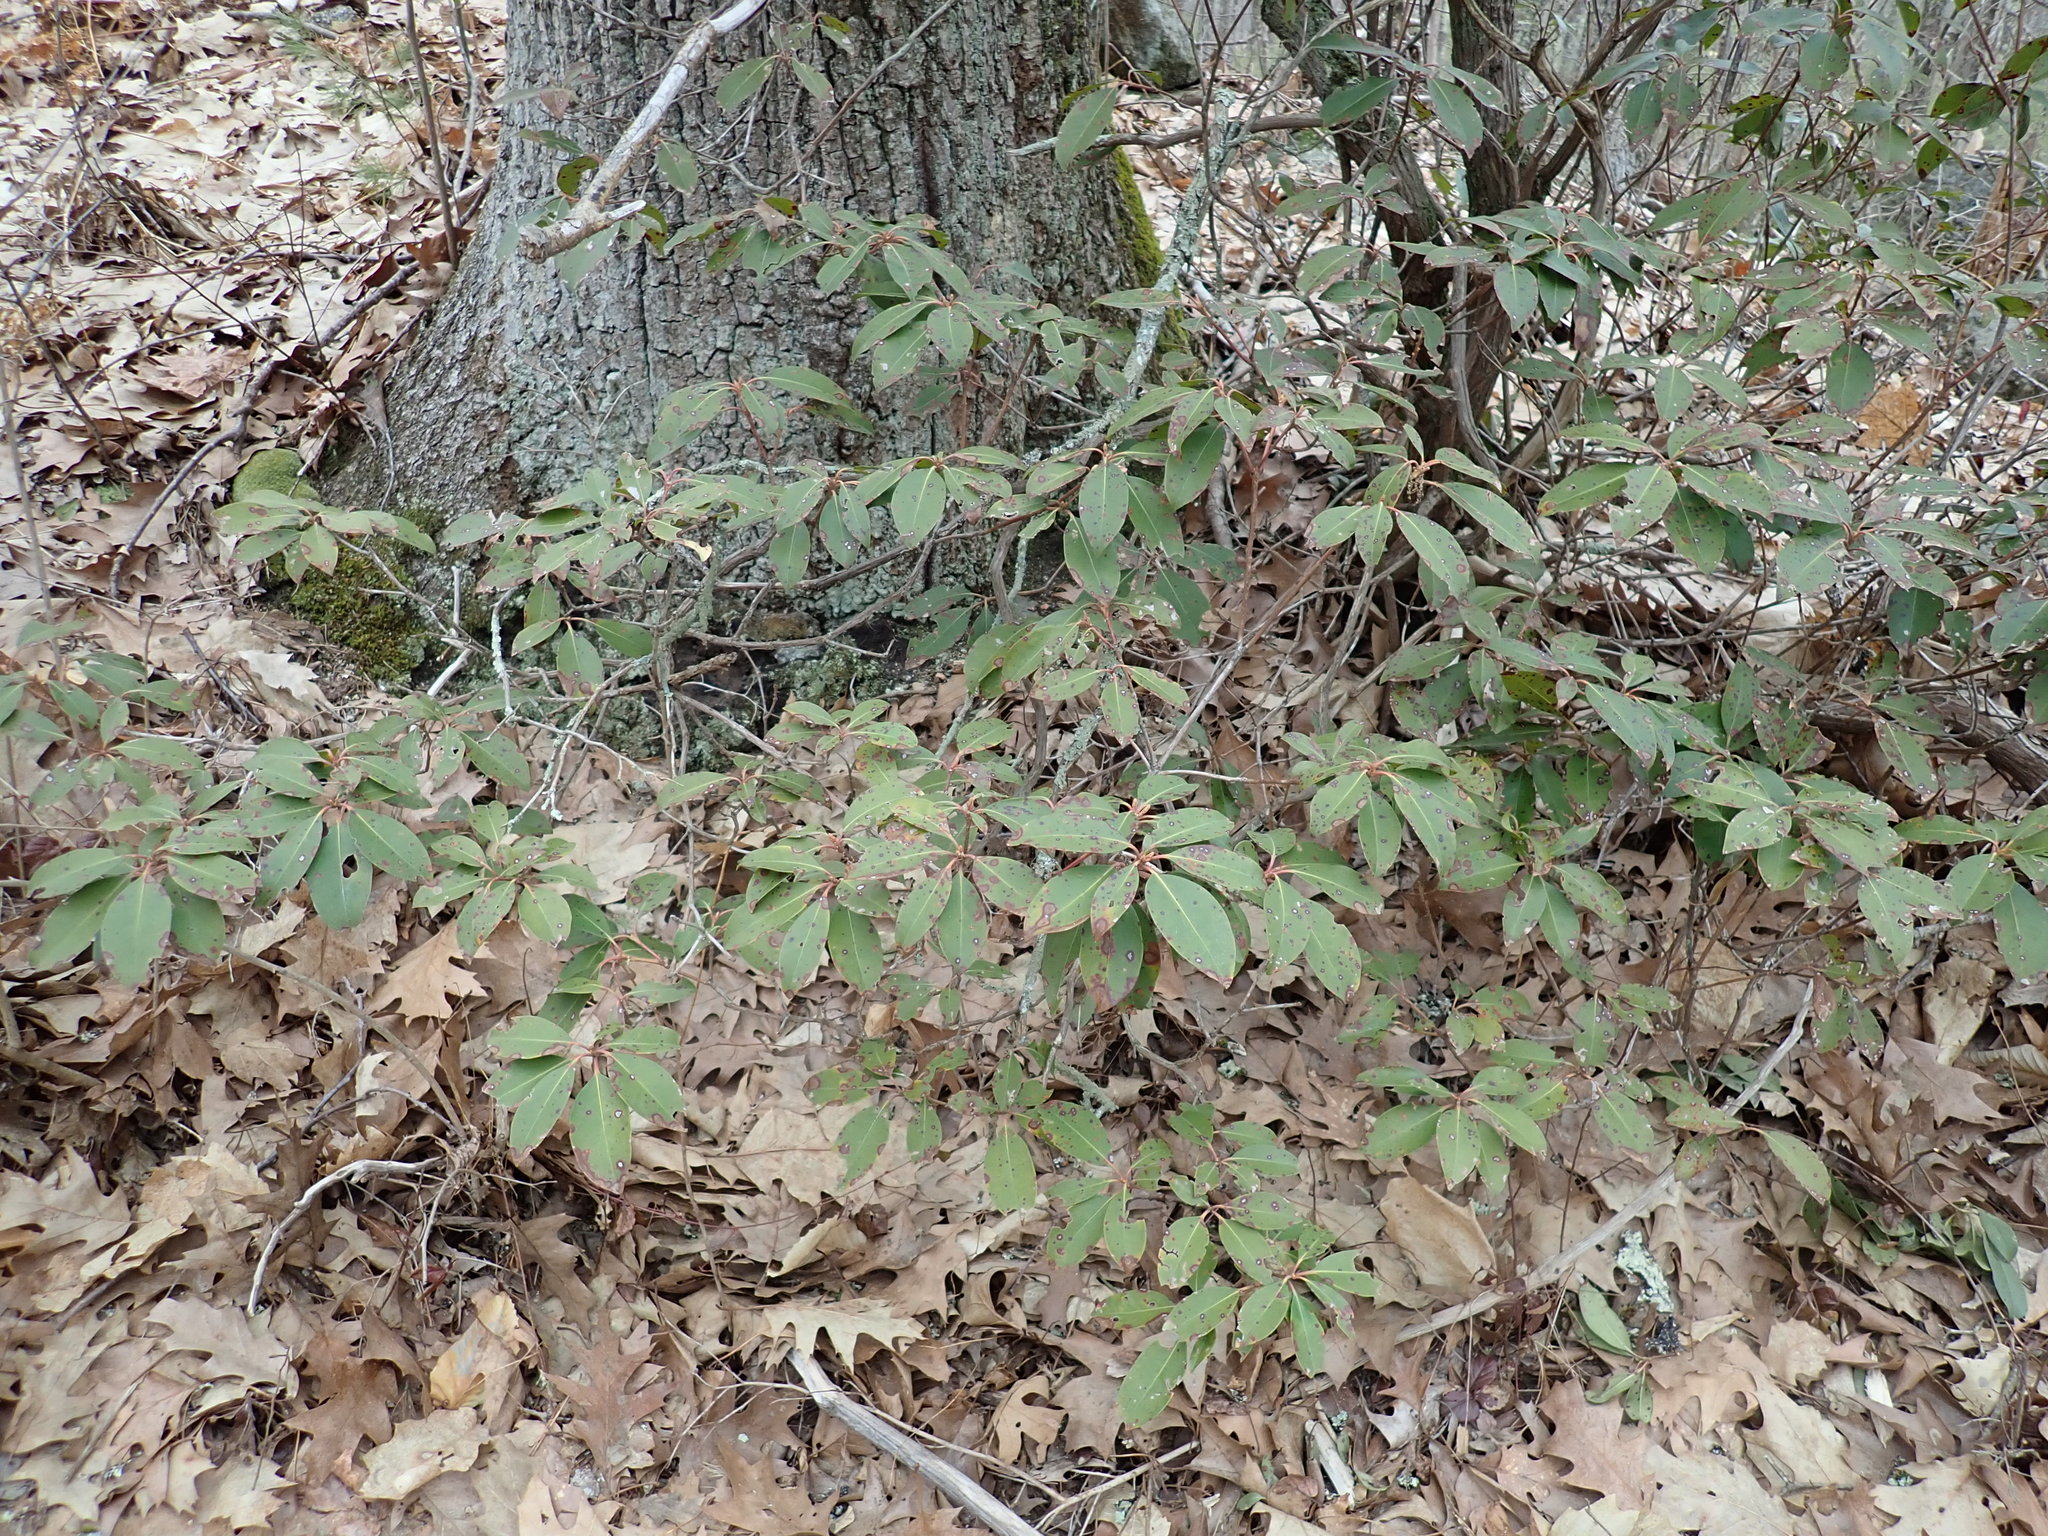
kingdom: Plantae
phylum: Tracheophyta
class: Magnoliopsida
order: Ericales
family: Ericaceae
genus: Kalmia
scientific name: Kalmia latifolia
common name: Mountain-laurel
